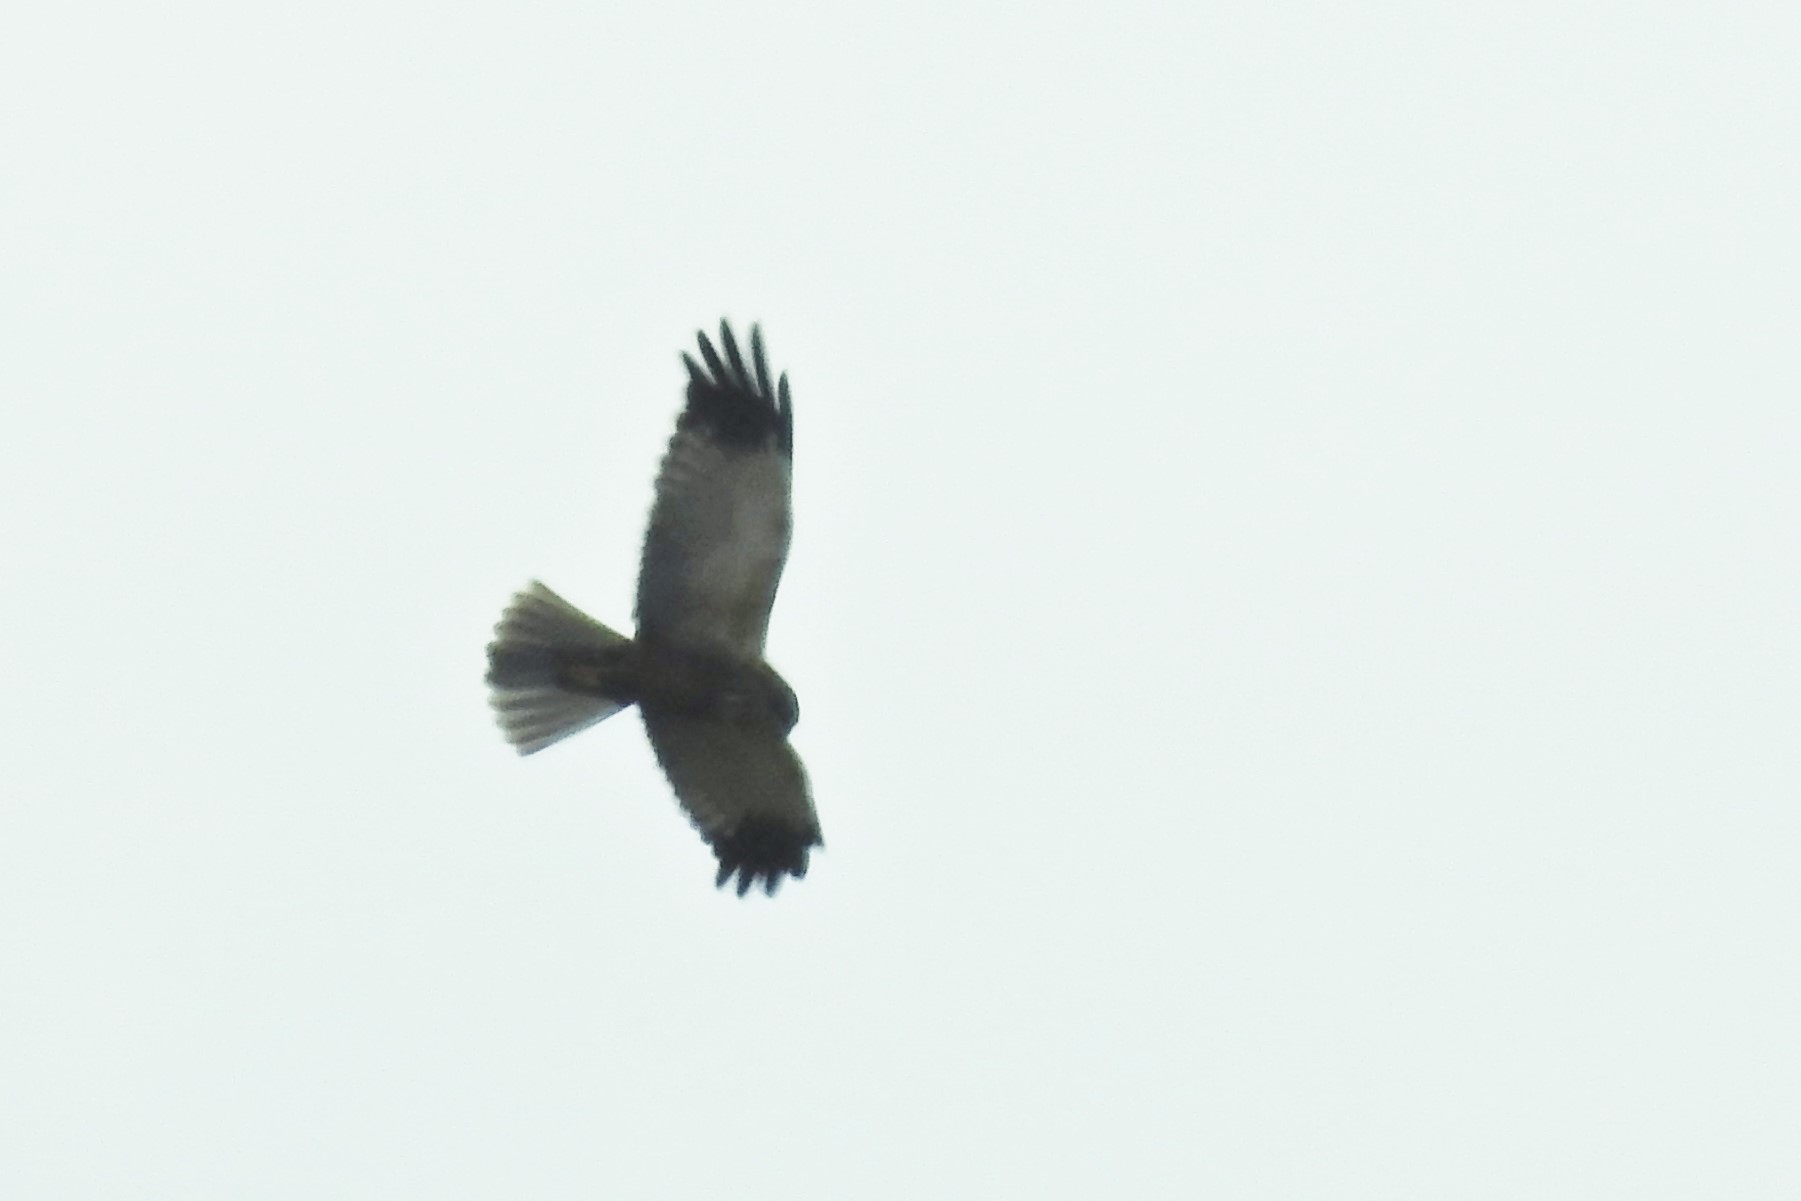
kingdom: Animalia
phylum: Chordata
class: Aves
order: Accipitriformes
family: Accipitridae
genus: Circus
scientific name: Circus aeruginosus
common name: Western marsh harrier
